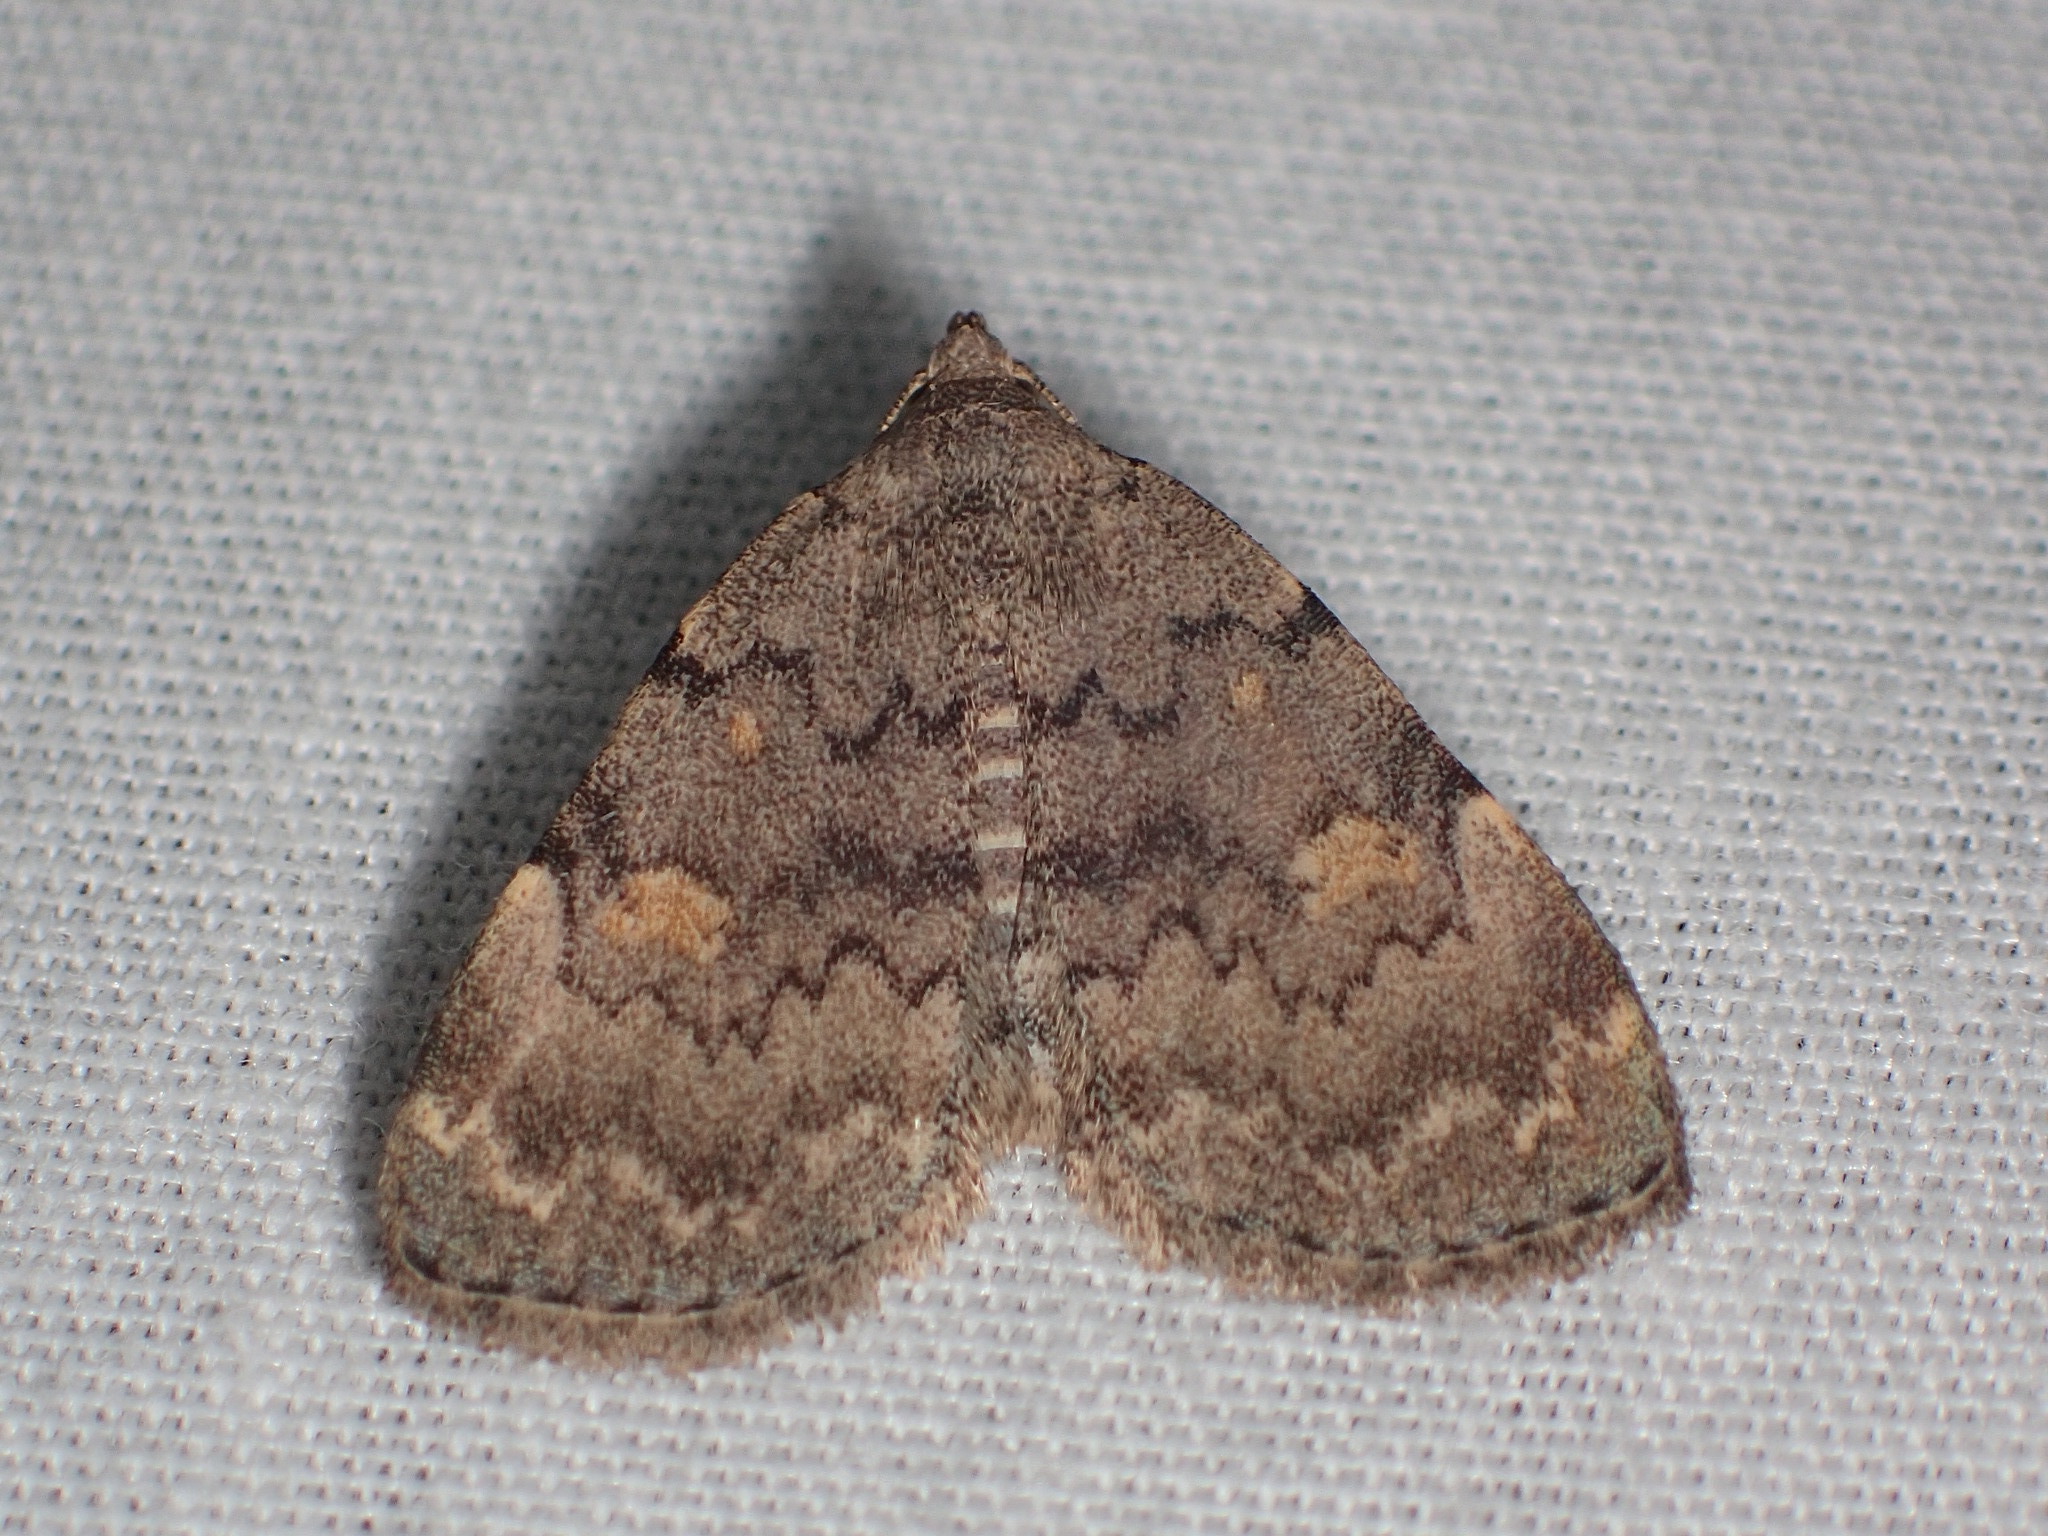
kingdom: Animalia
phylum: Arthropoda
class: Insecta
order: Lepidoptera
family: Erebidae
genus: Idia
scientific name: Idia aemula
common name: Common idia moth
